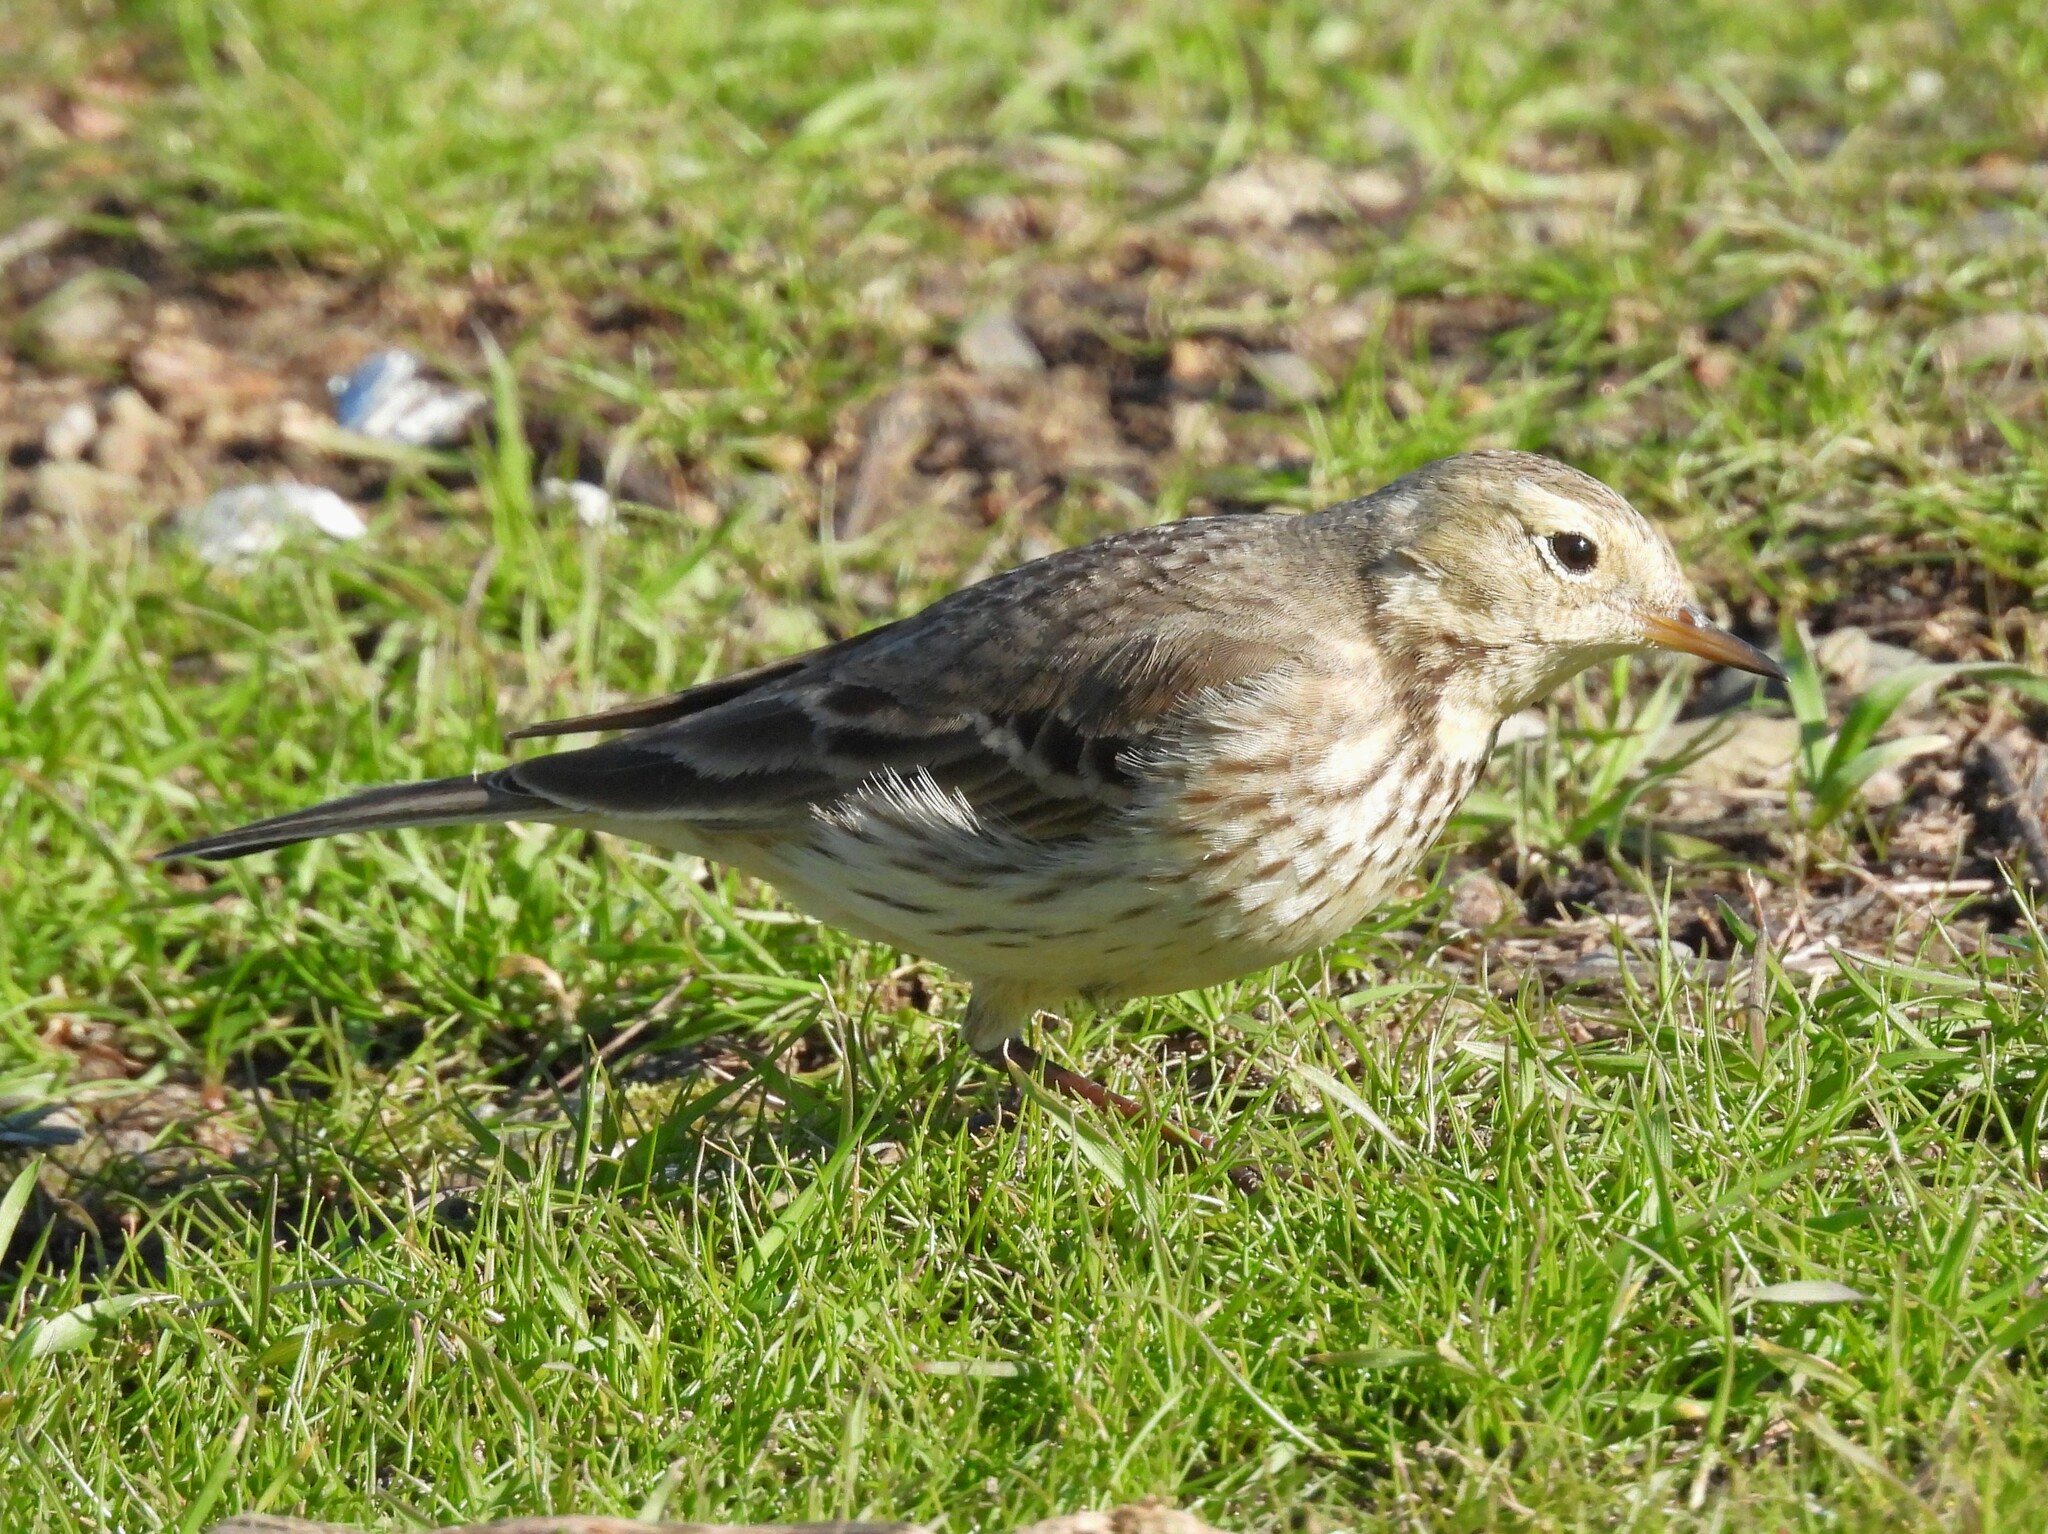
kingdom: Animalia
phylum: Chordata
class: Aves
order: Passeriformes
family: Motacillidae
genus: Anthus
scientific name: Anthus rubescens
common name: Buff-bellied pipit
